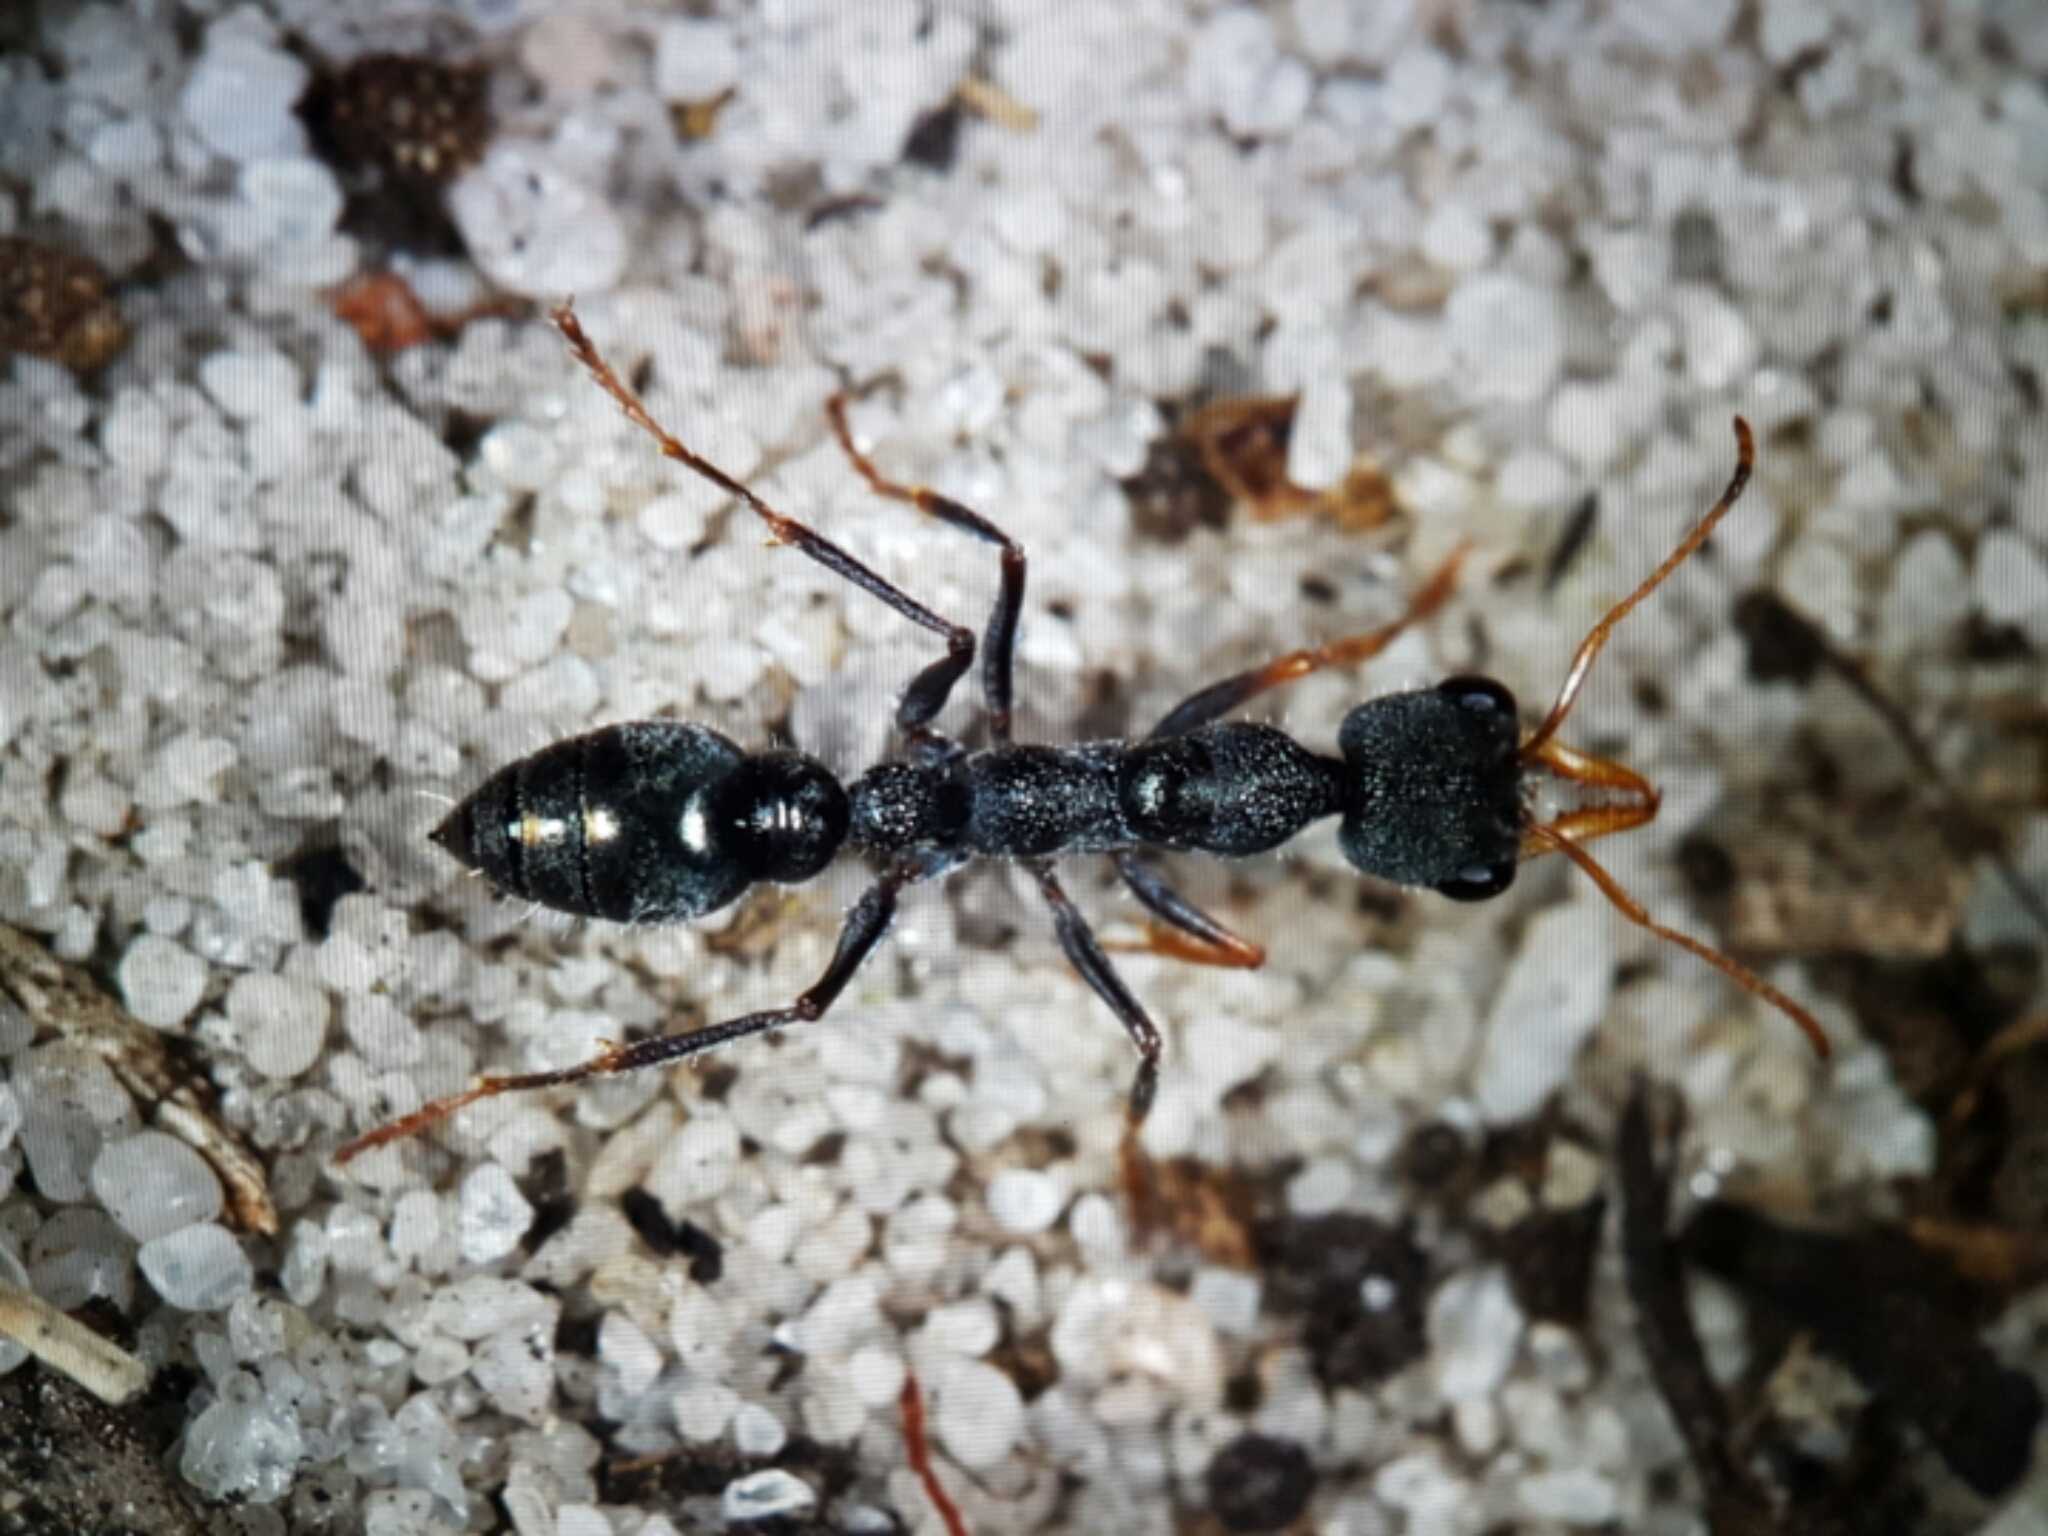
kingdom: Animalia
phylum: Arthropoda
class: Insecta
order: Hymenoptera
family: Formicidae
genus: Myrmecia
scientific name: Myrmecia urens
